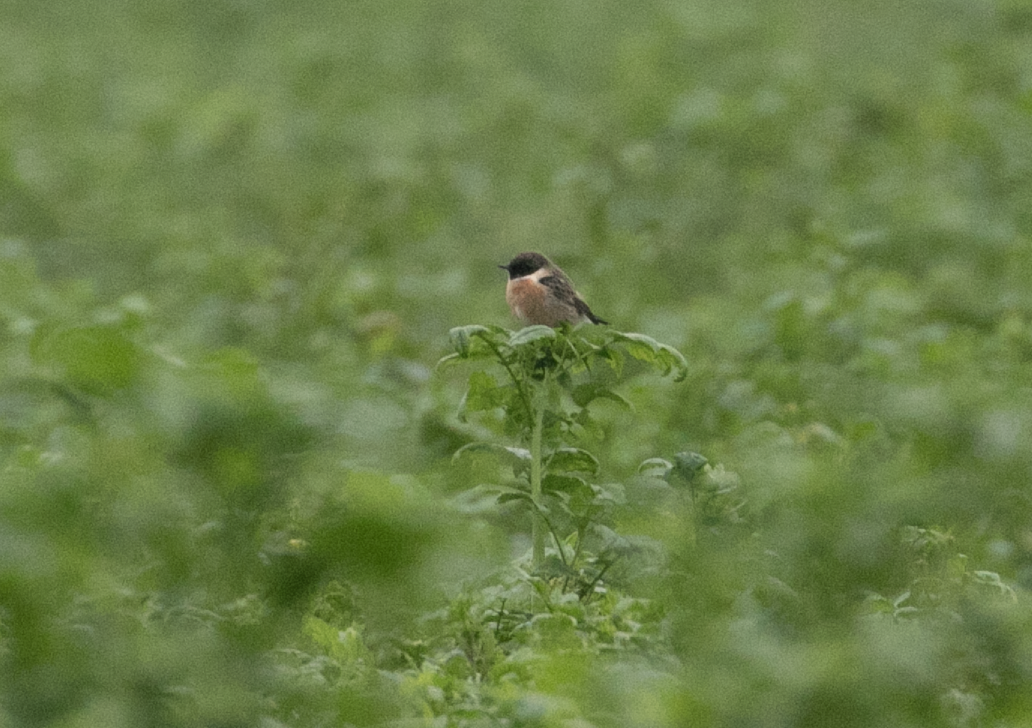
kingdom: Animalia
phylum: Chordata
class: Aves
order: Passeriformes
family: Muscicapidae
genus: Saxicola
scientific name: Saxicola rubicola
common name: European stonechat
